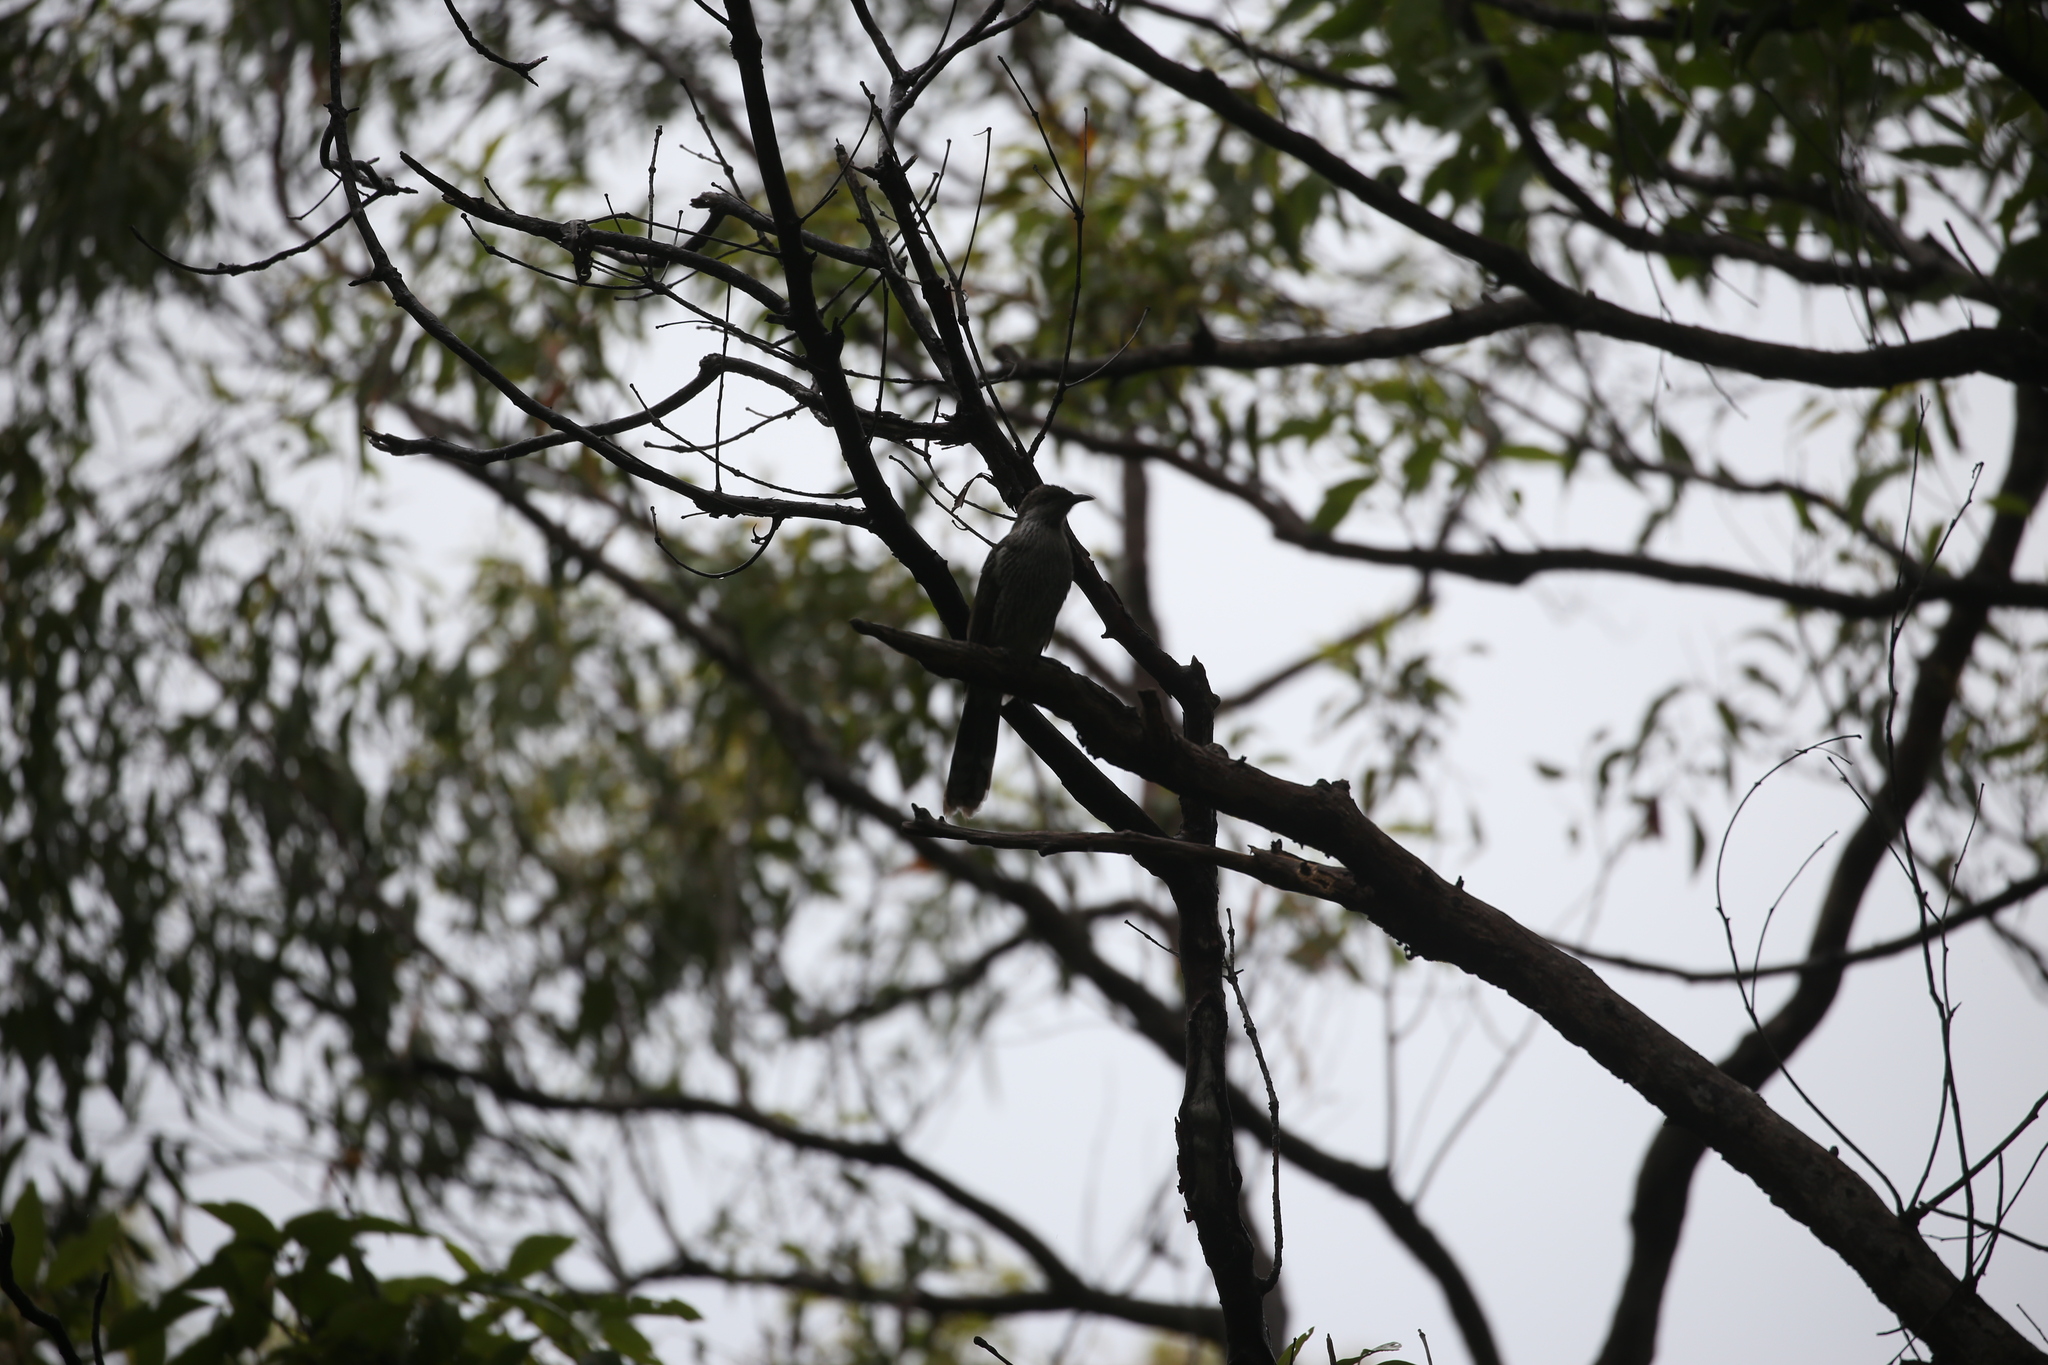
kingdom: Animalia
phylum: Chordata
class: Aves
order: Passeriformes
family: Meliphagidae
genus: Anthochaera
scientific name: Anthochaera chrysoptera
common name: Little wattlebird
